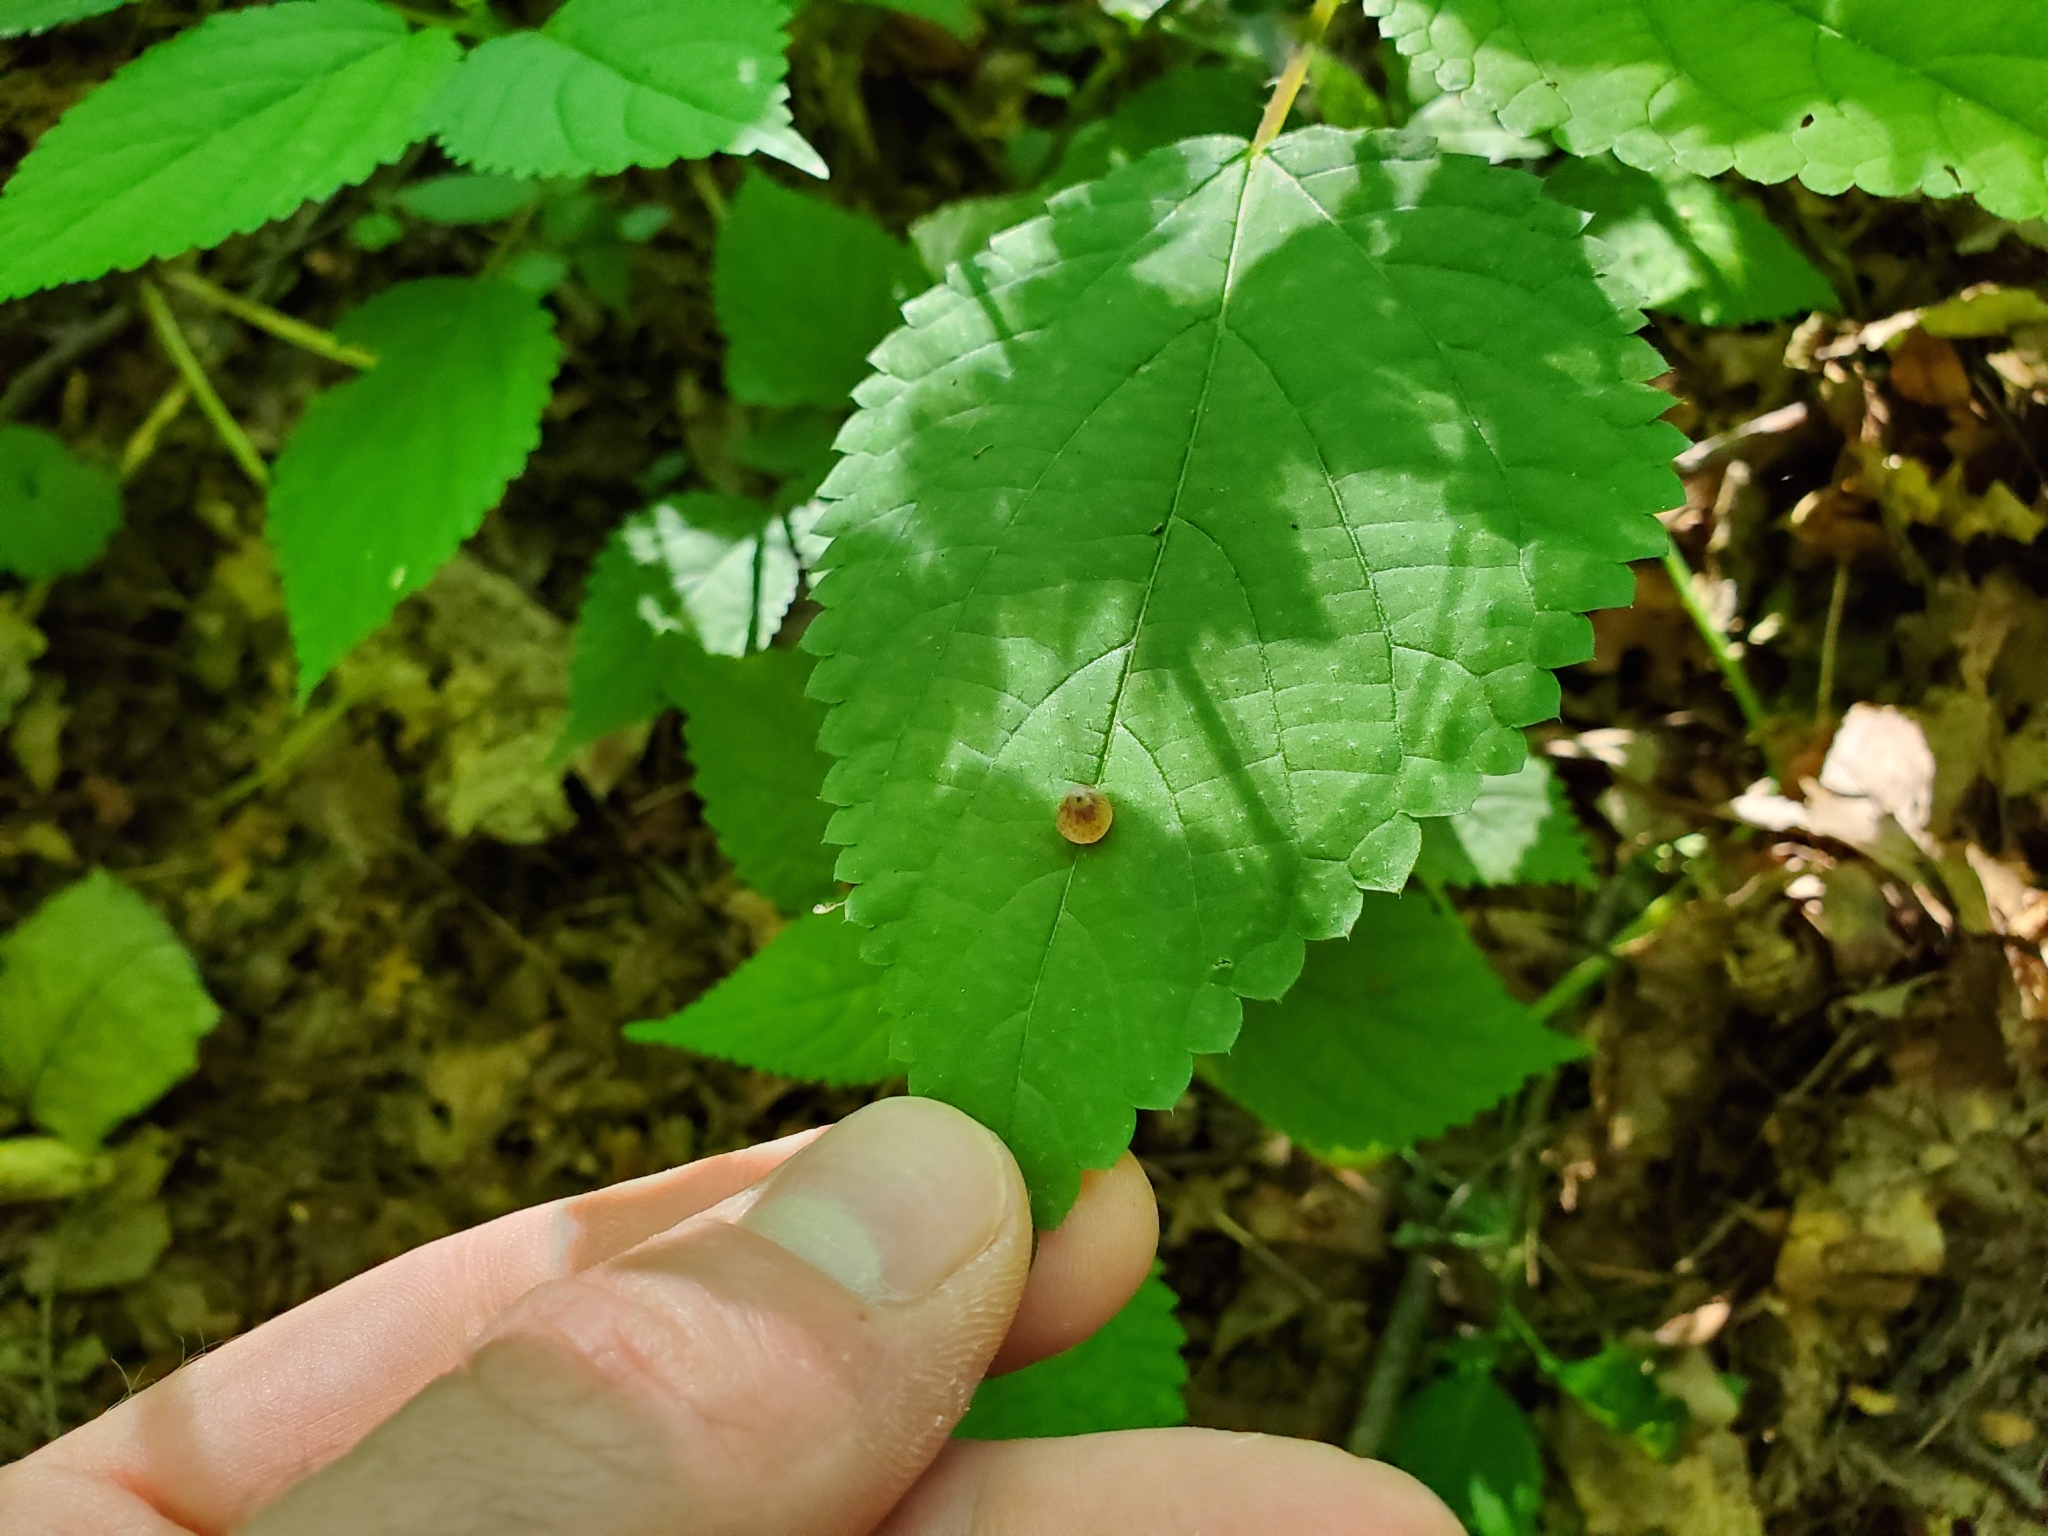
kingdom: Animalia
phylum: Arthropoda
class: Insecta
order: Diptera
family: Cecidomyiidae
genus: Dasineura
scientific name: Dasineura investita
